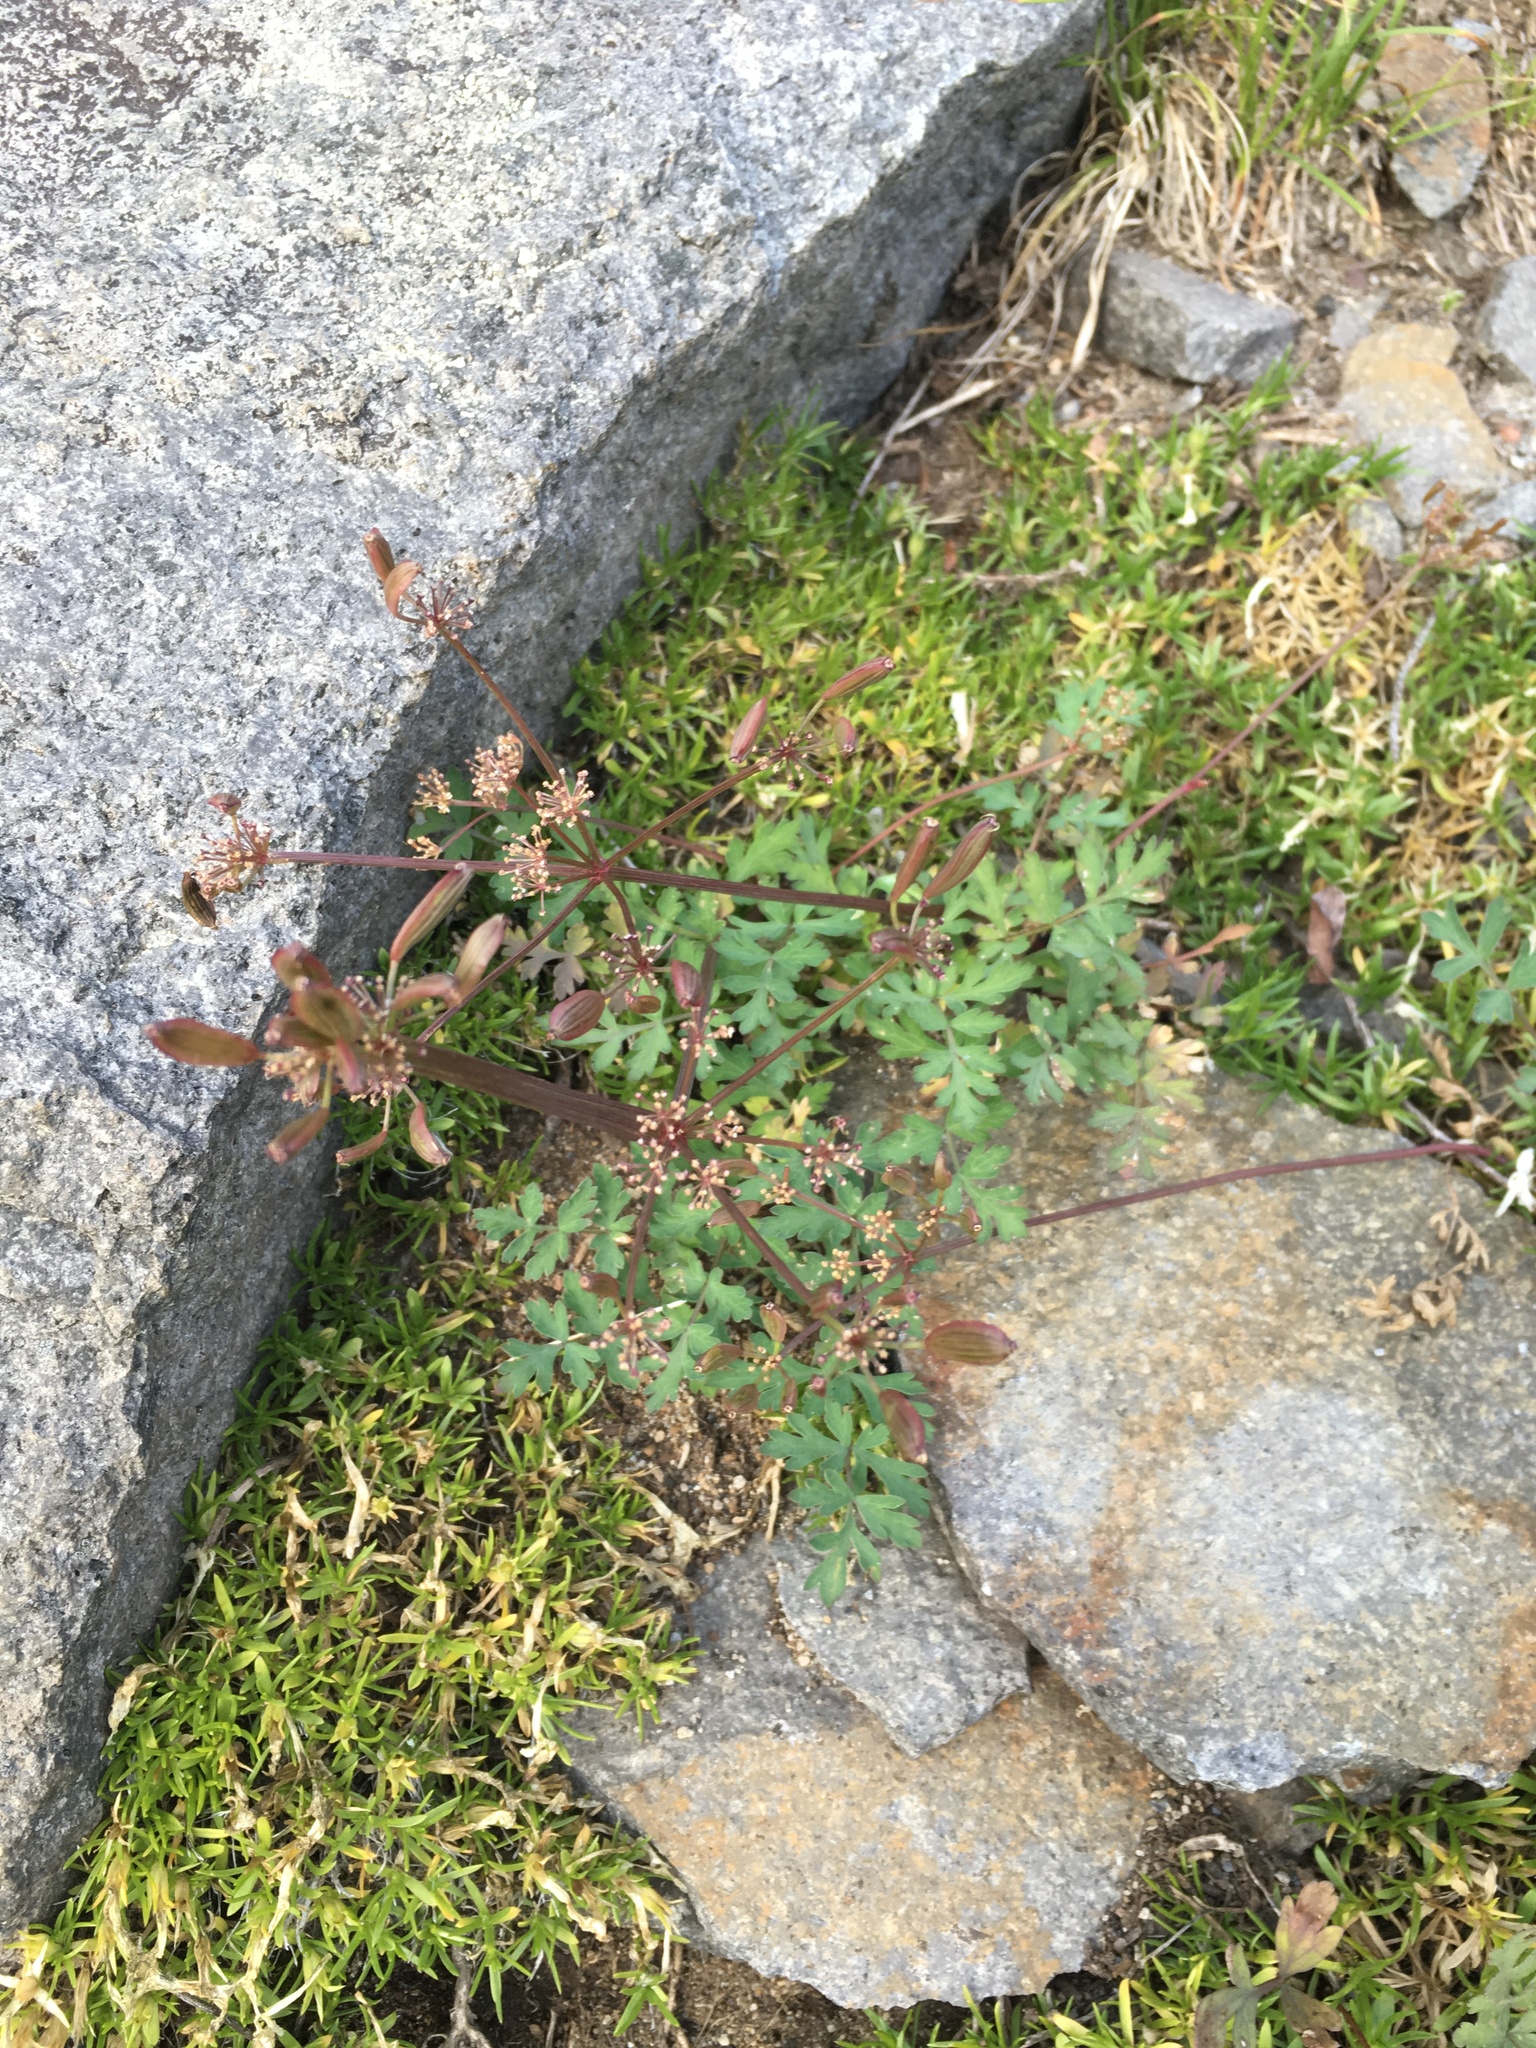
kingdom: Plantae
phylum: Tracheophyta
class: Magnoliopsida
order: Apiales
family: Apiaceae
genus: Lomatium
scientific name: Lomatium martindalei
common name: Cascade desert-parsley
